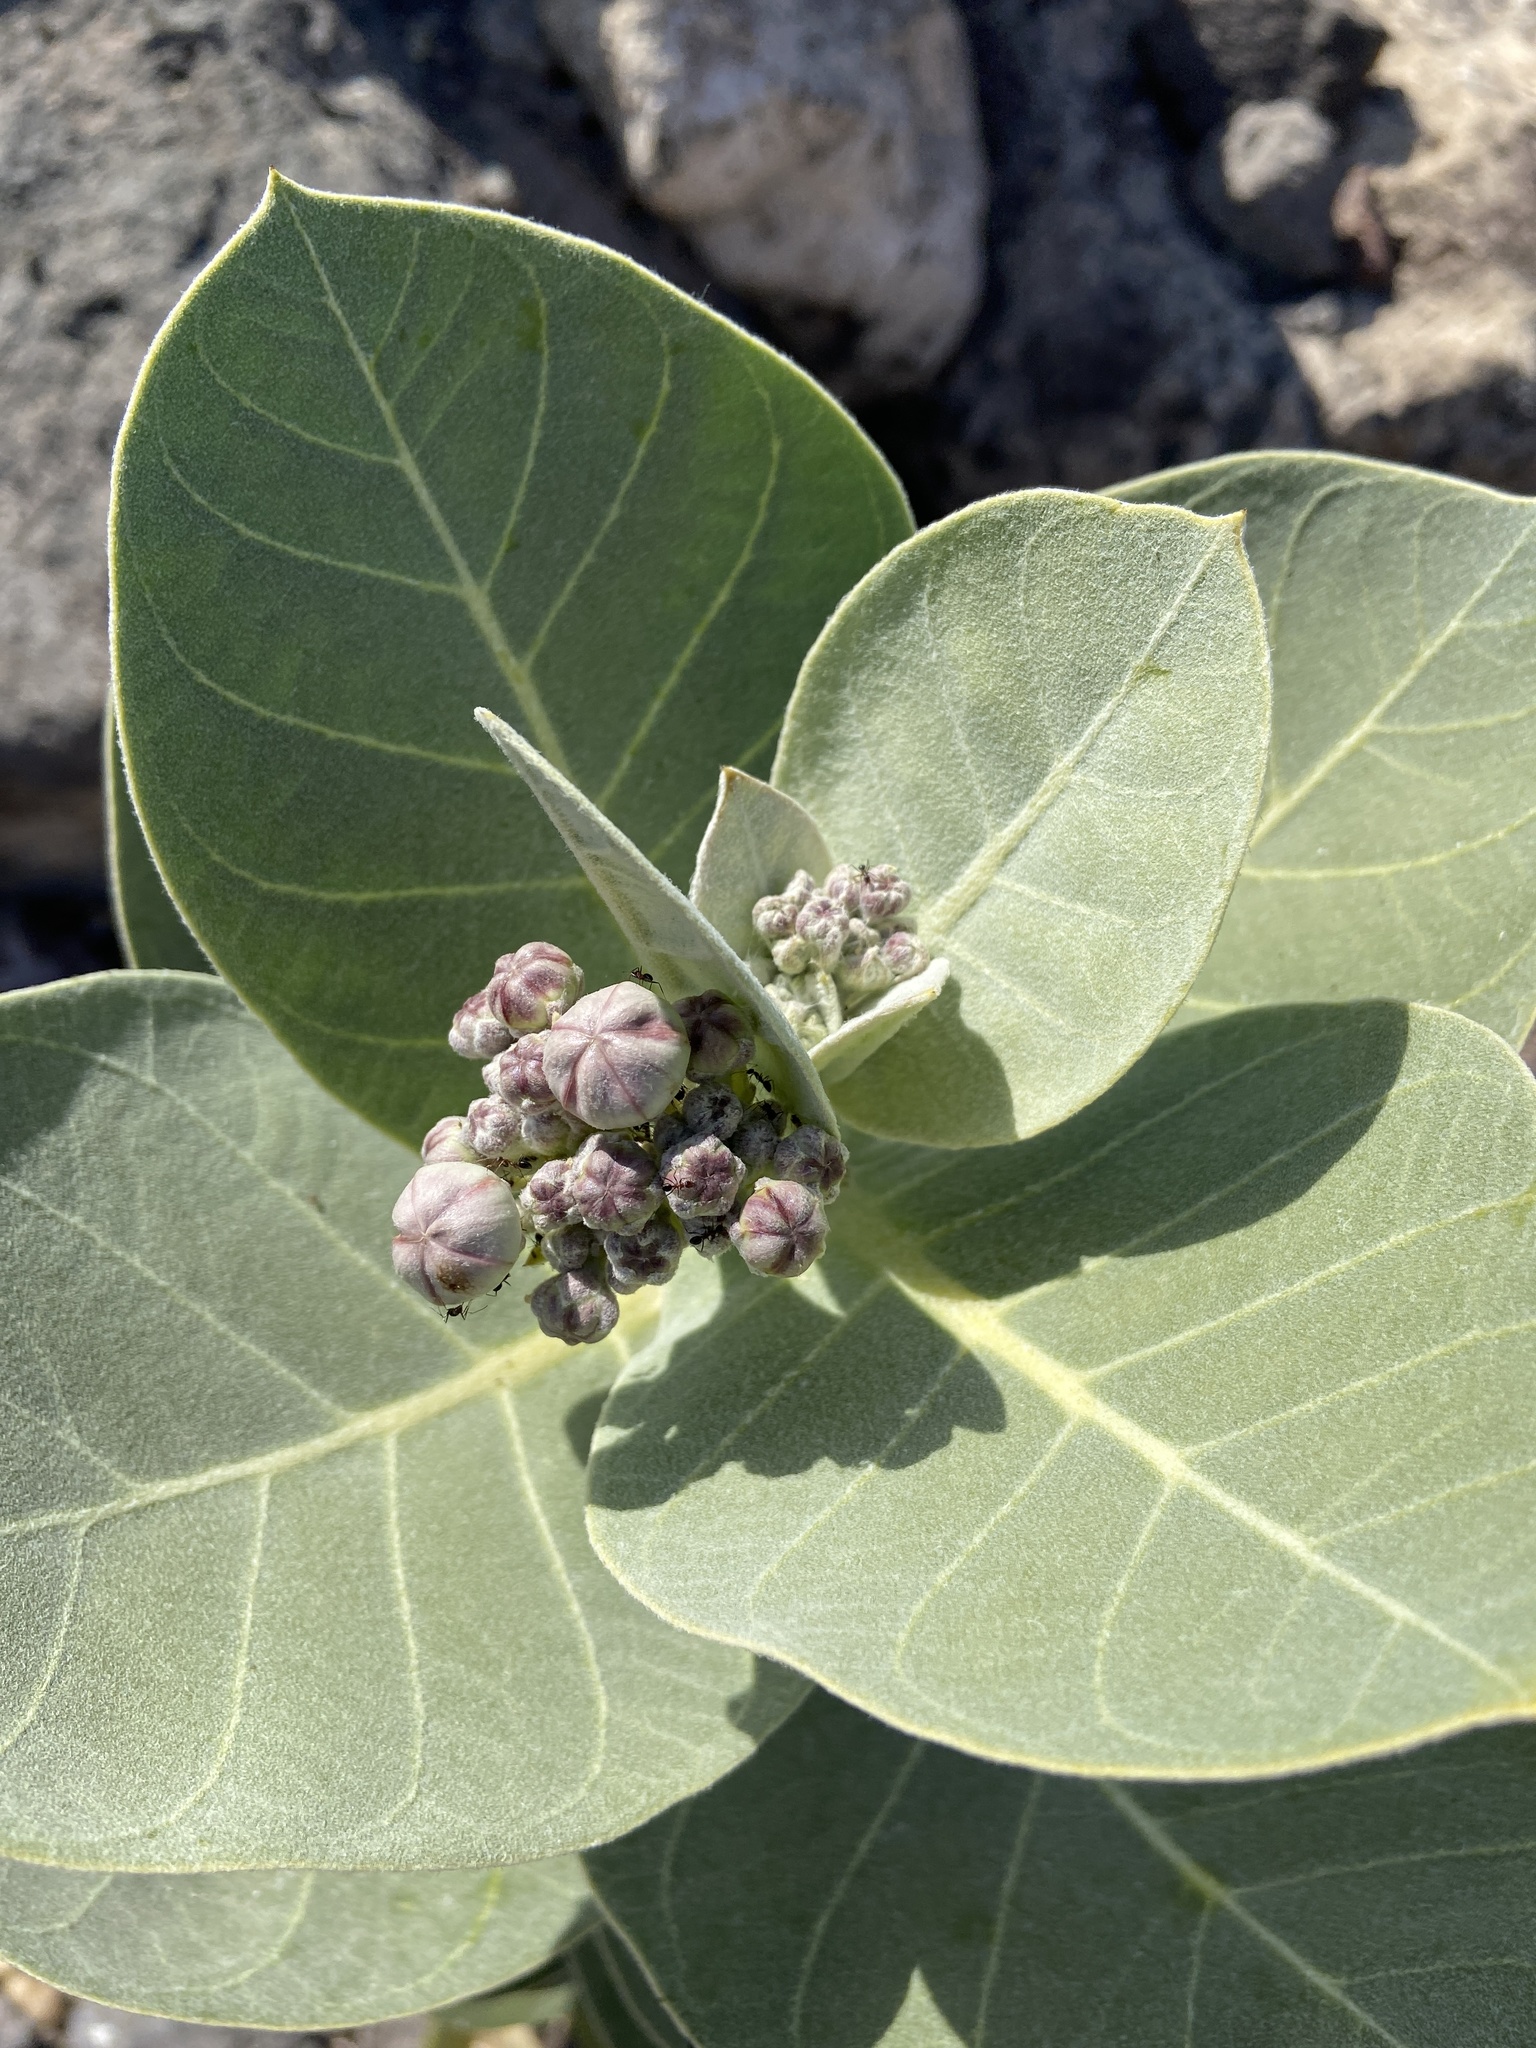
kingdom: Plantae
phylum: Tracheophyta
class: Magnoliopsida
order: Gentianales
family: Apocynaceae
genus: Calotropis
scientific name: Calotropis procera
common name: Roostertree
